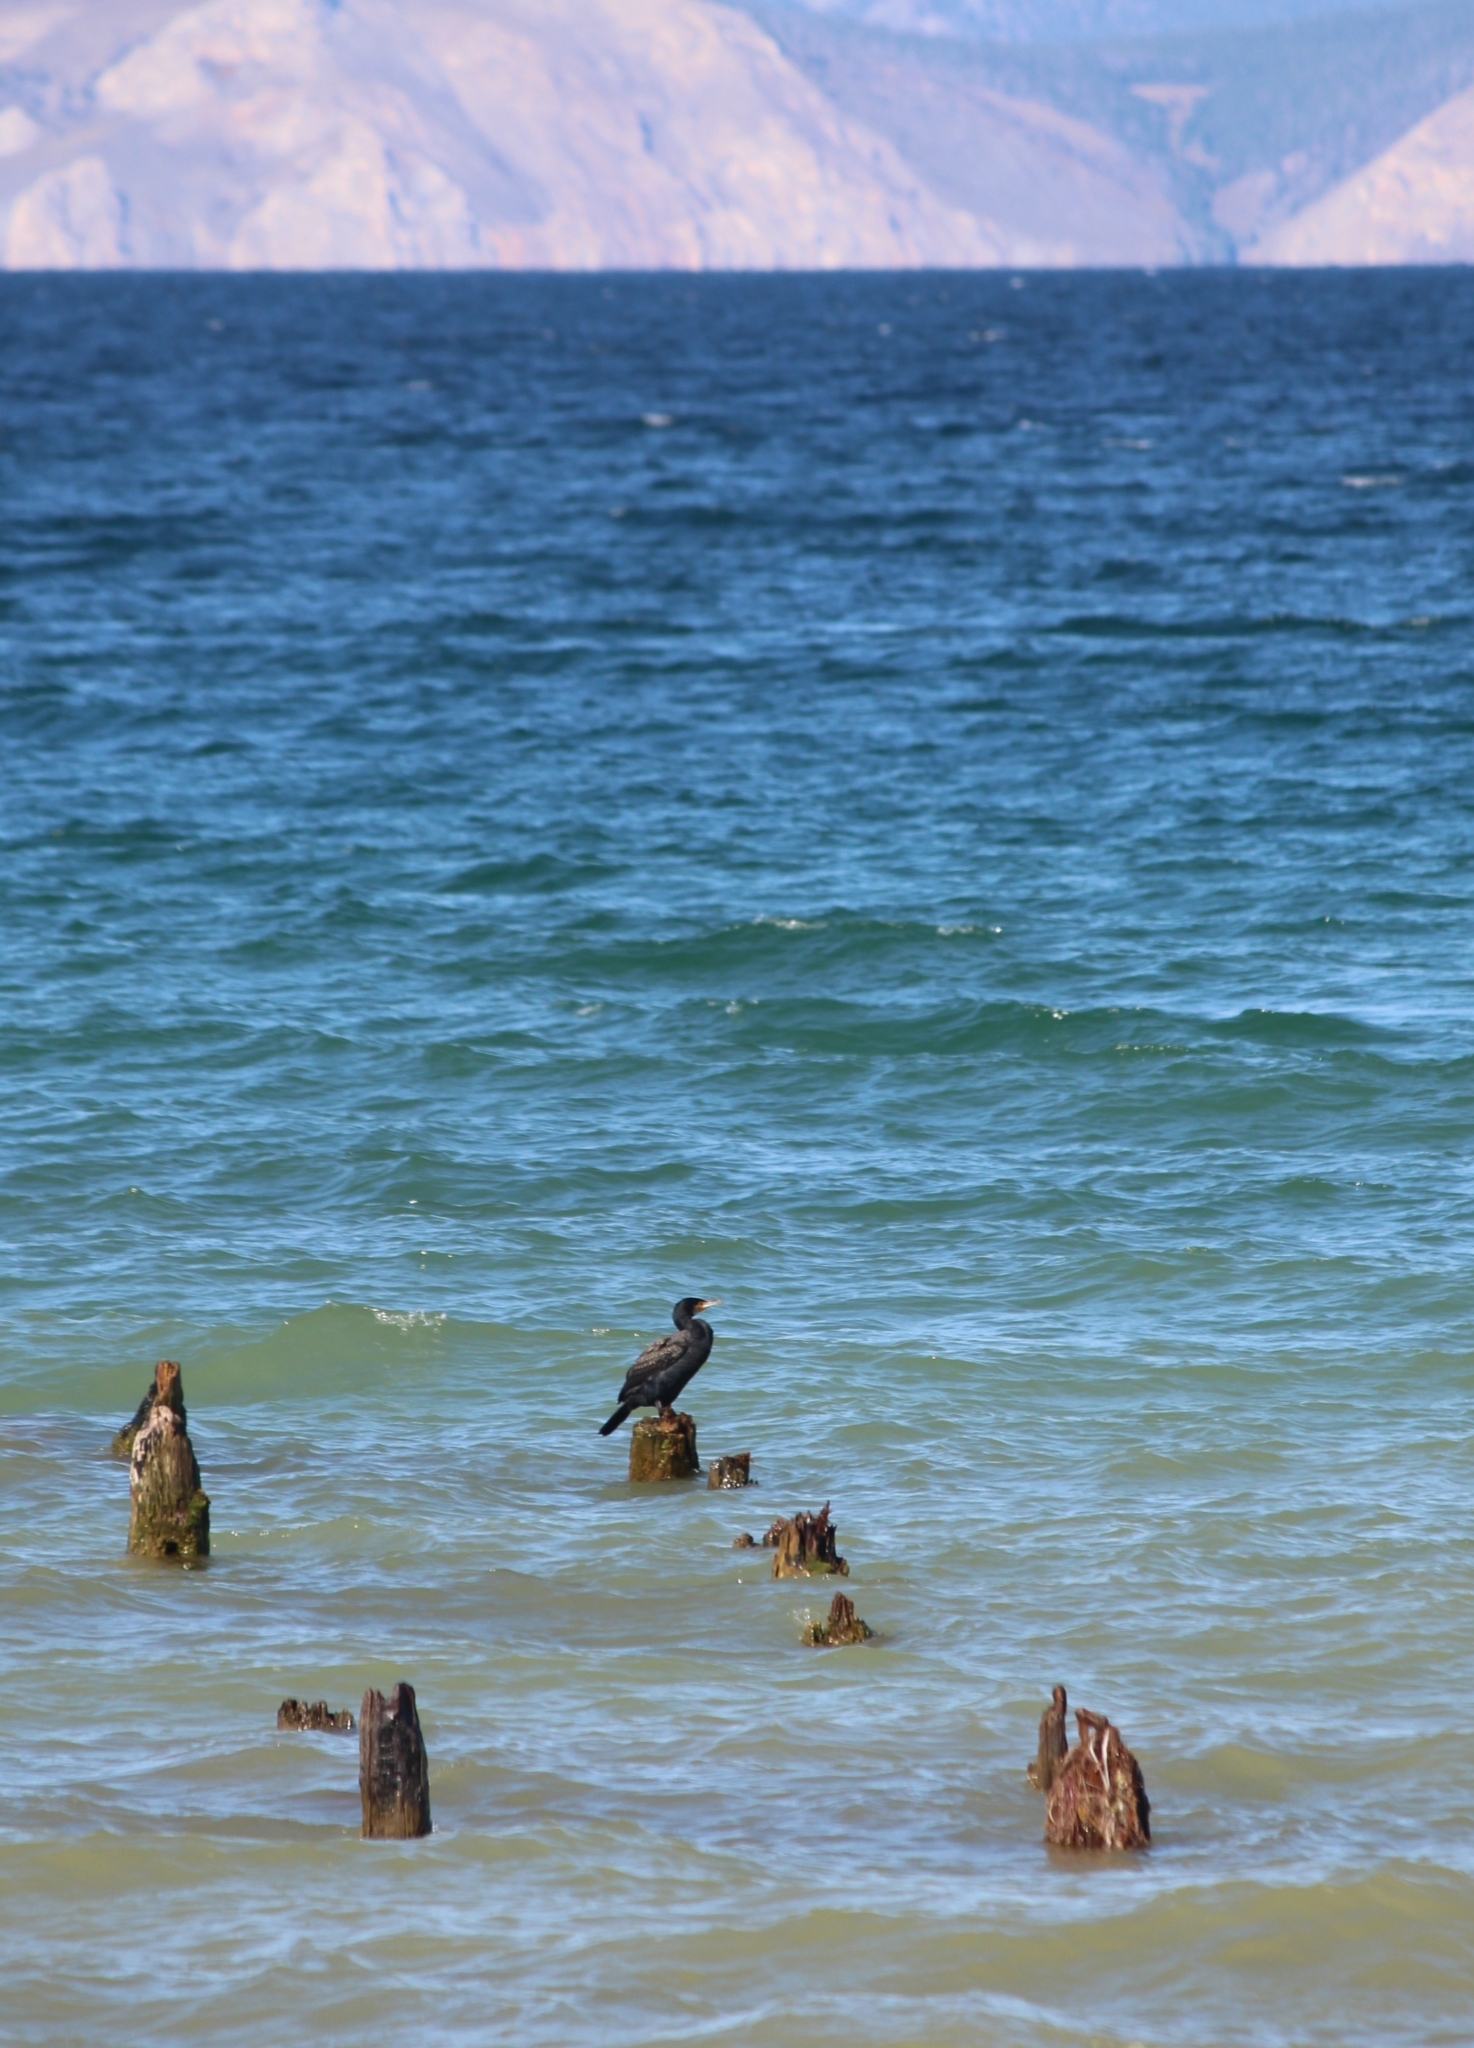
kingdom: Animalia
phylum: Chordata
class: Aves
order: Suliformes
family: Phalacrocoracidae
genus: Phalacrocorax
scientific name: Phalacrocorax carbo
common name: Great cormorant
